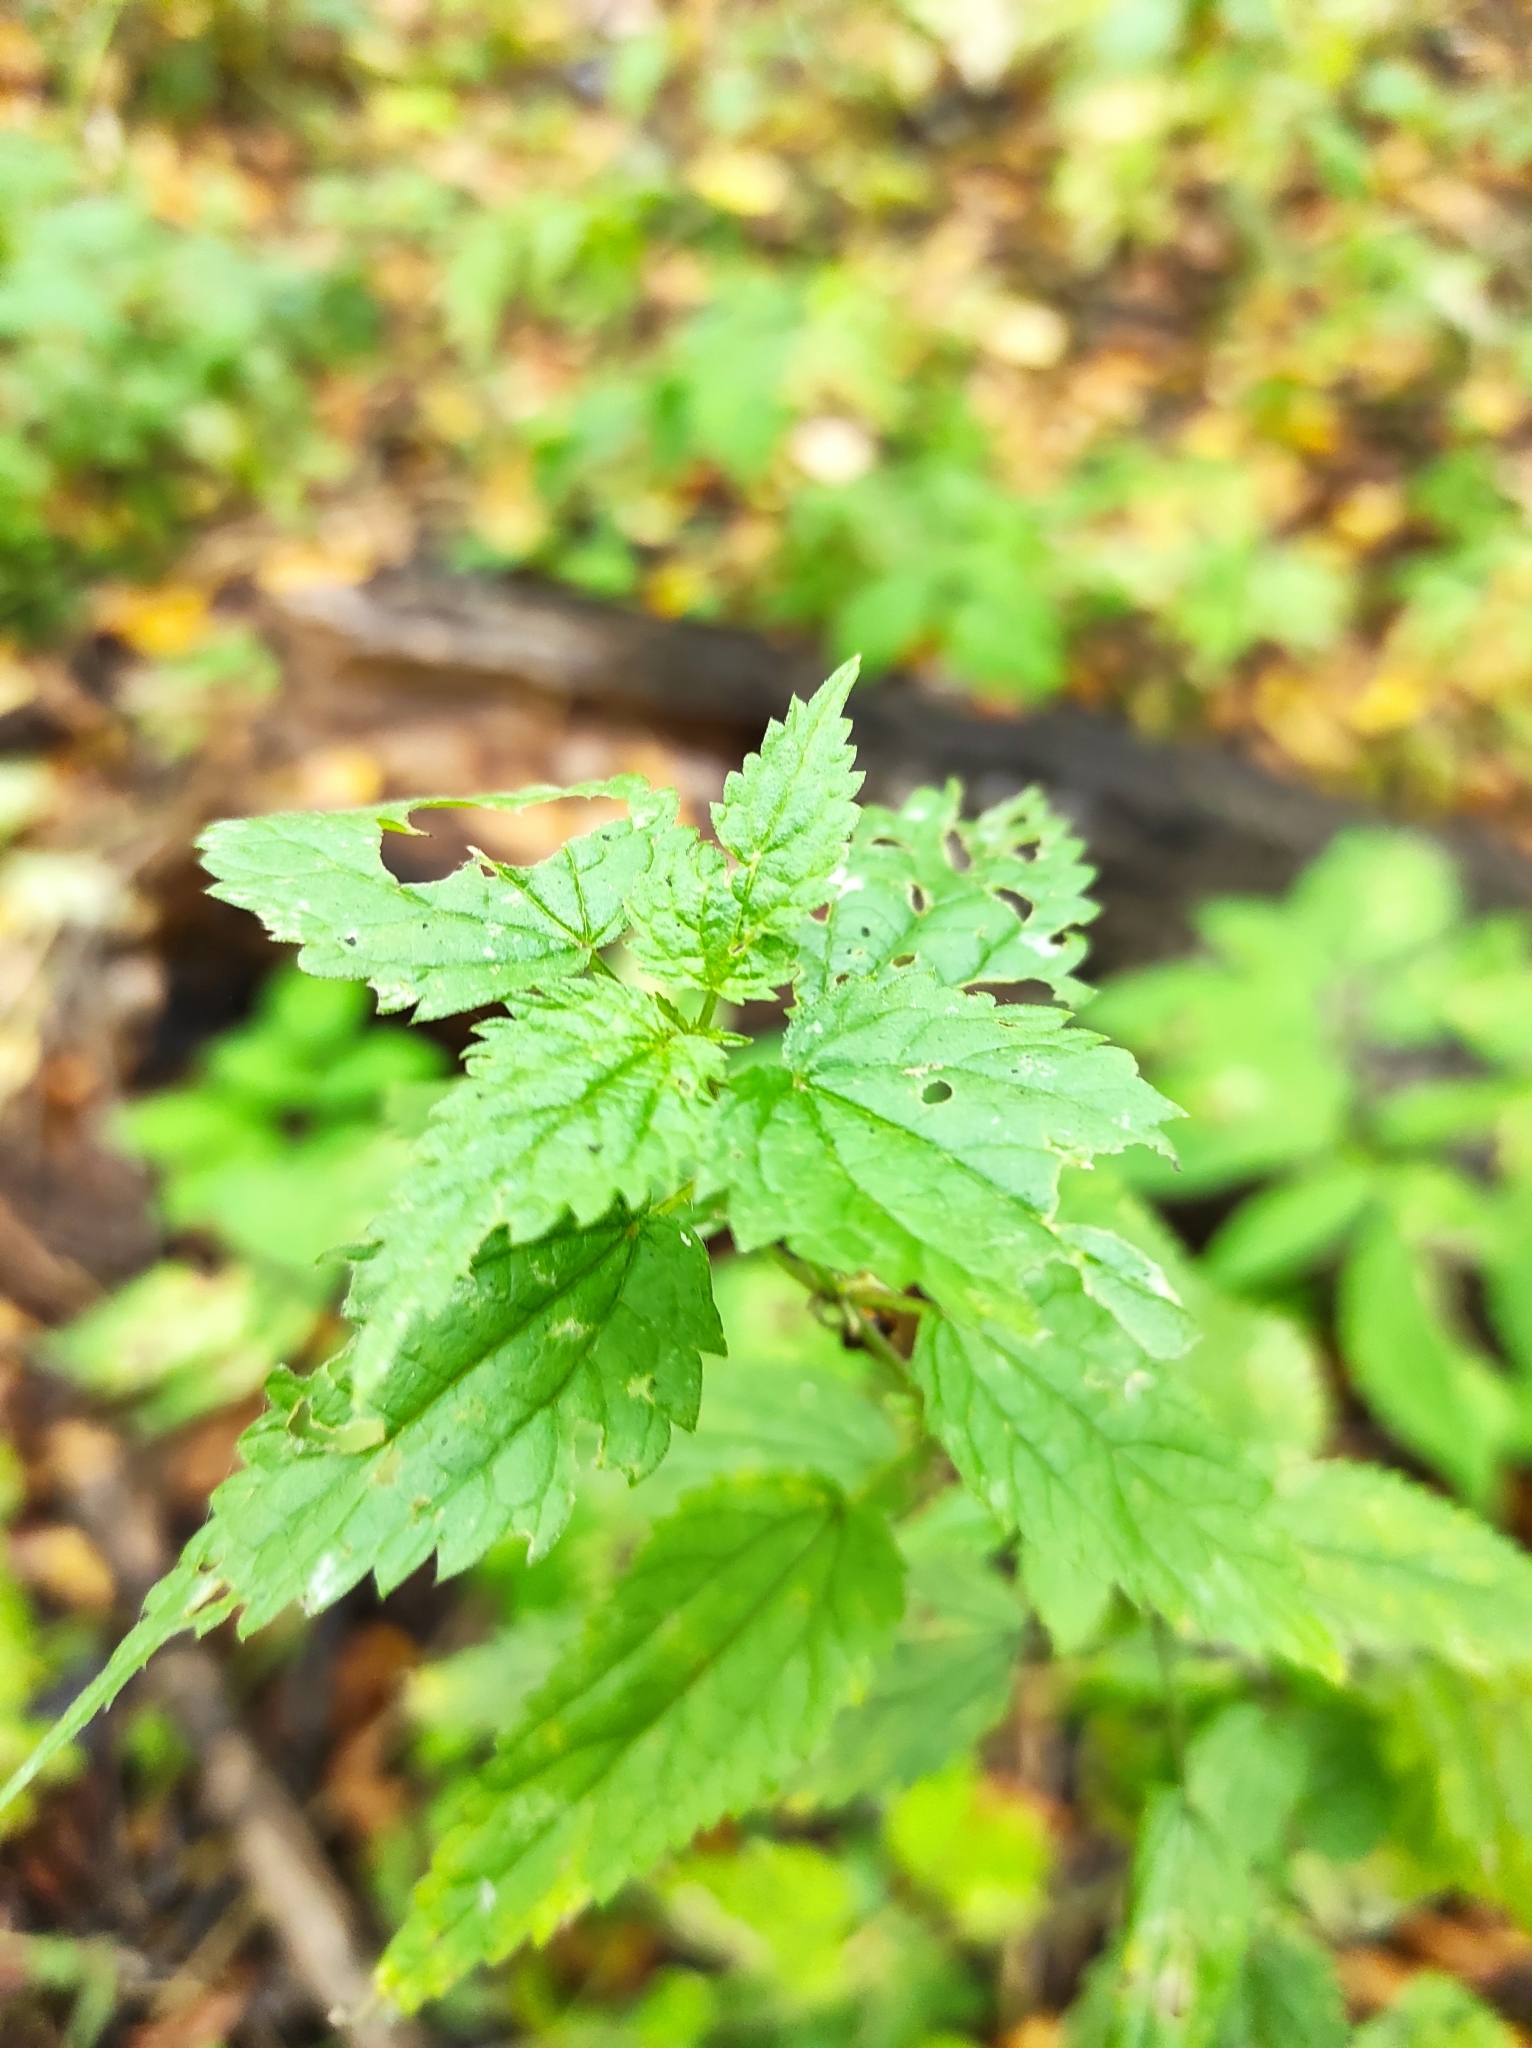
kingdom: Plantae
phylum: Tracheophyta
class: Magnoliopsida
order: Rosales
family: Urticaceae
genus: Urtica
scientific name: Urtica dioica
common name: Common nettle
